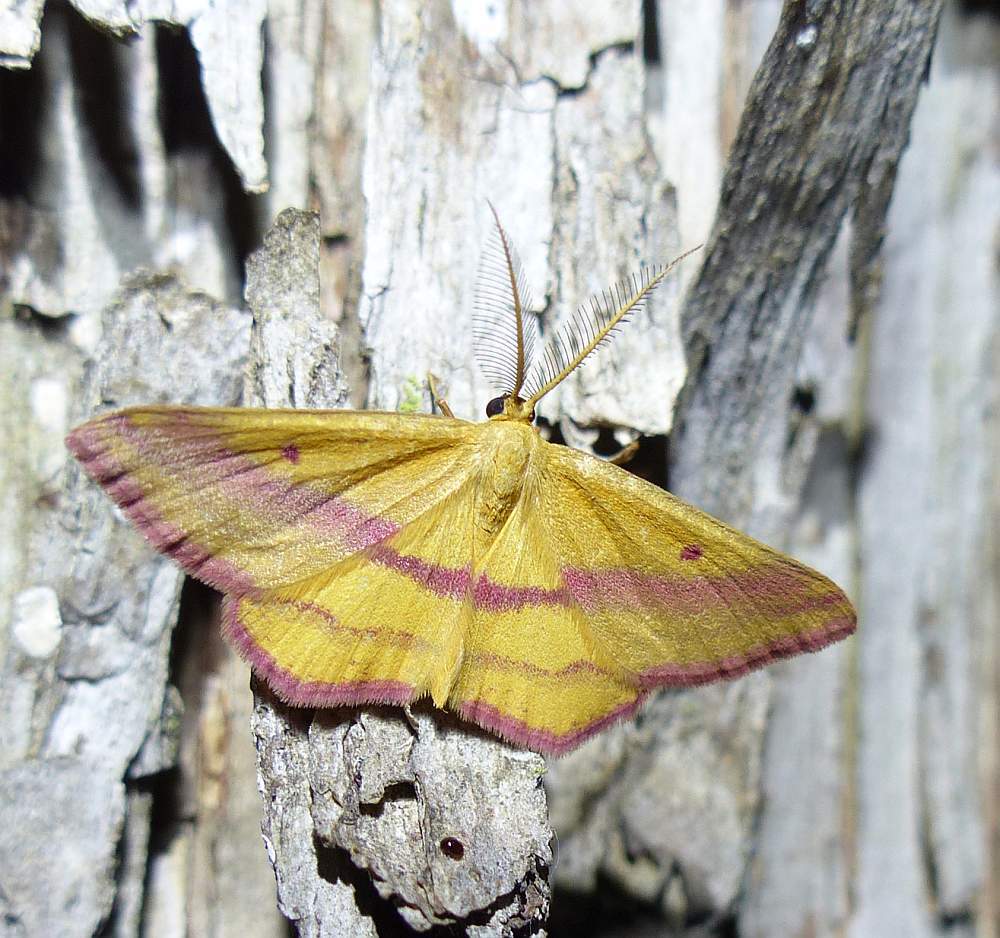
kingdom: Animalia
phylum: Arthropoda
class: Insecta
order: Lepidoptera
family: Geometridae
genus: Haematopis
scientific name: Haematopis grataria
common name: Chickweed geometer
